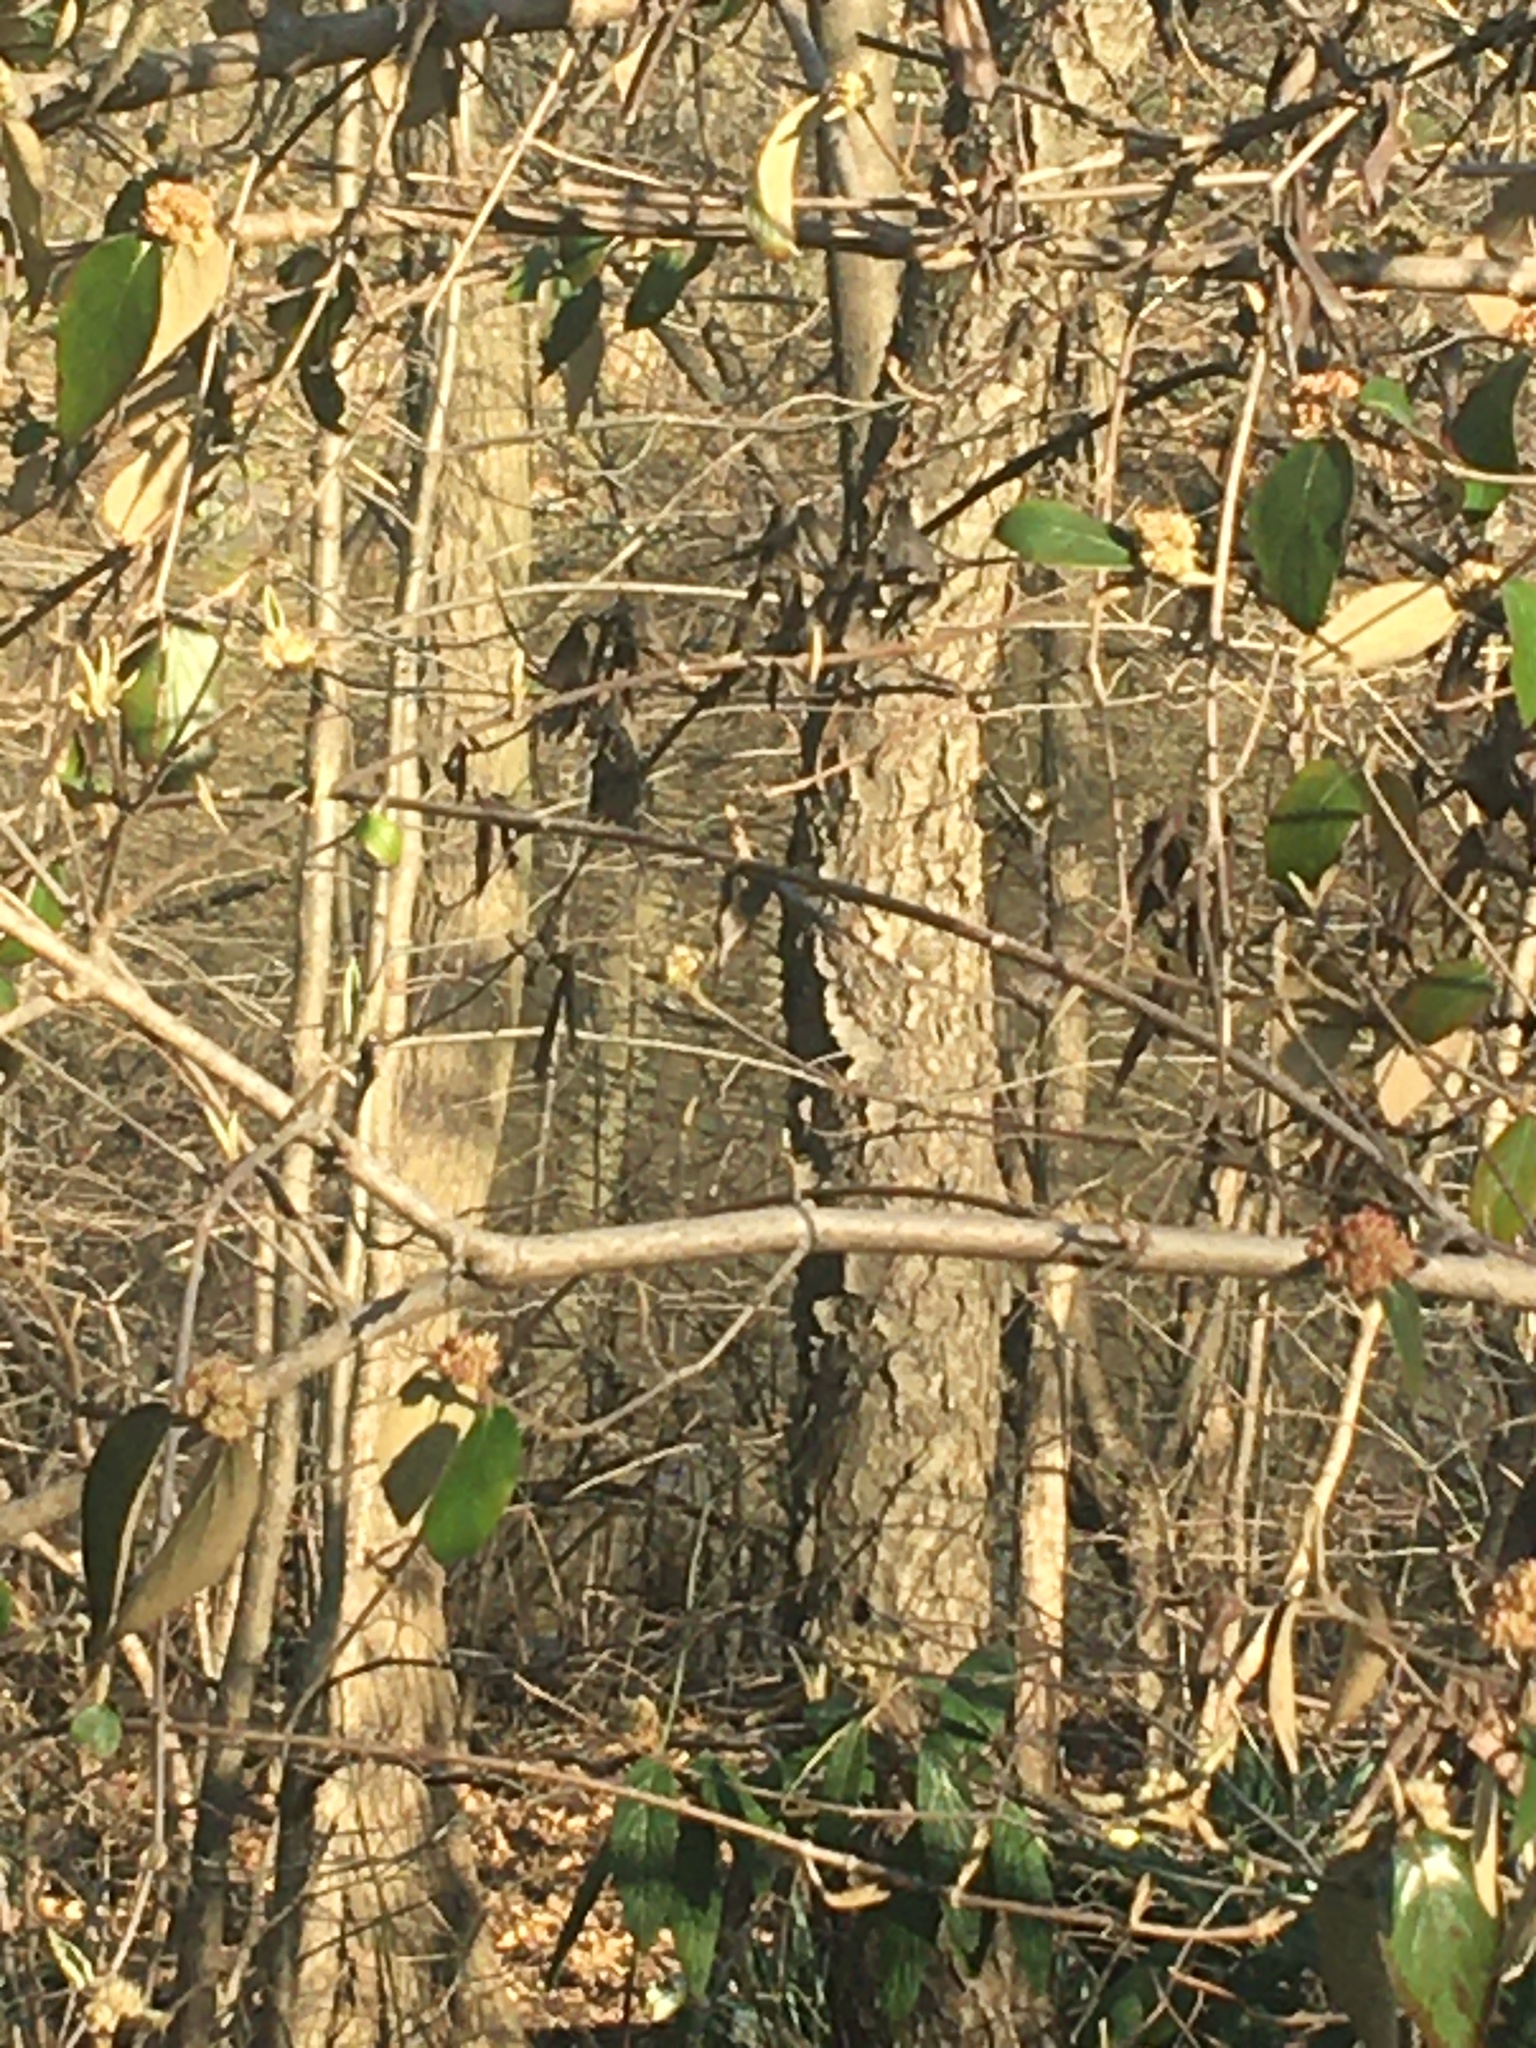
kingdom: Plantae
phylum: Tracheophyta
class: Magnoliopsida
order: Rosales
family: Rosaceae
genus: Prunus
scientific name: Prunus serotina
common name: Black cherry
